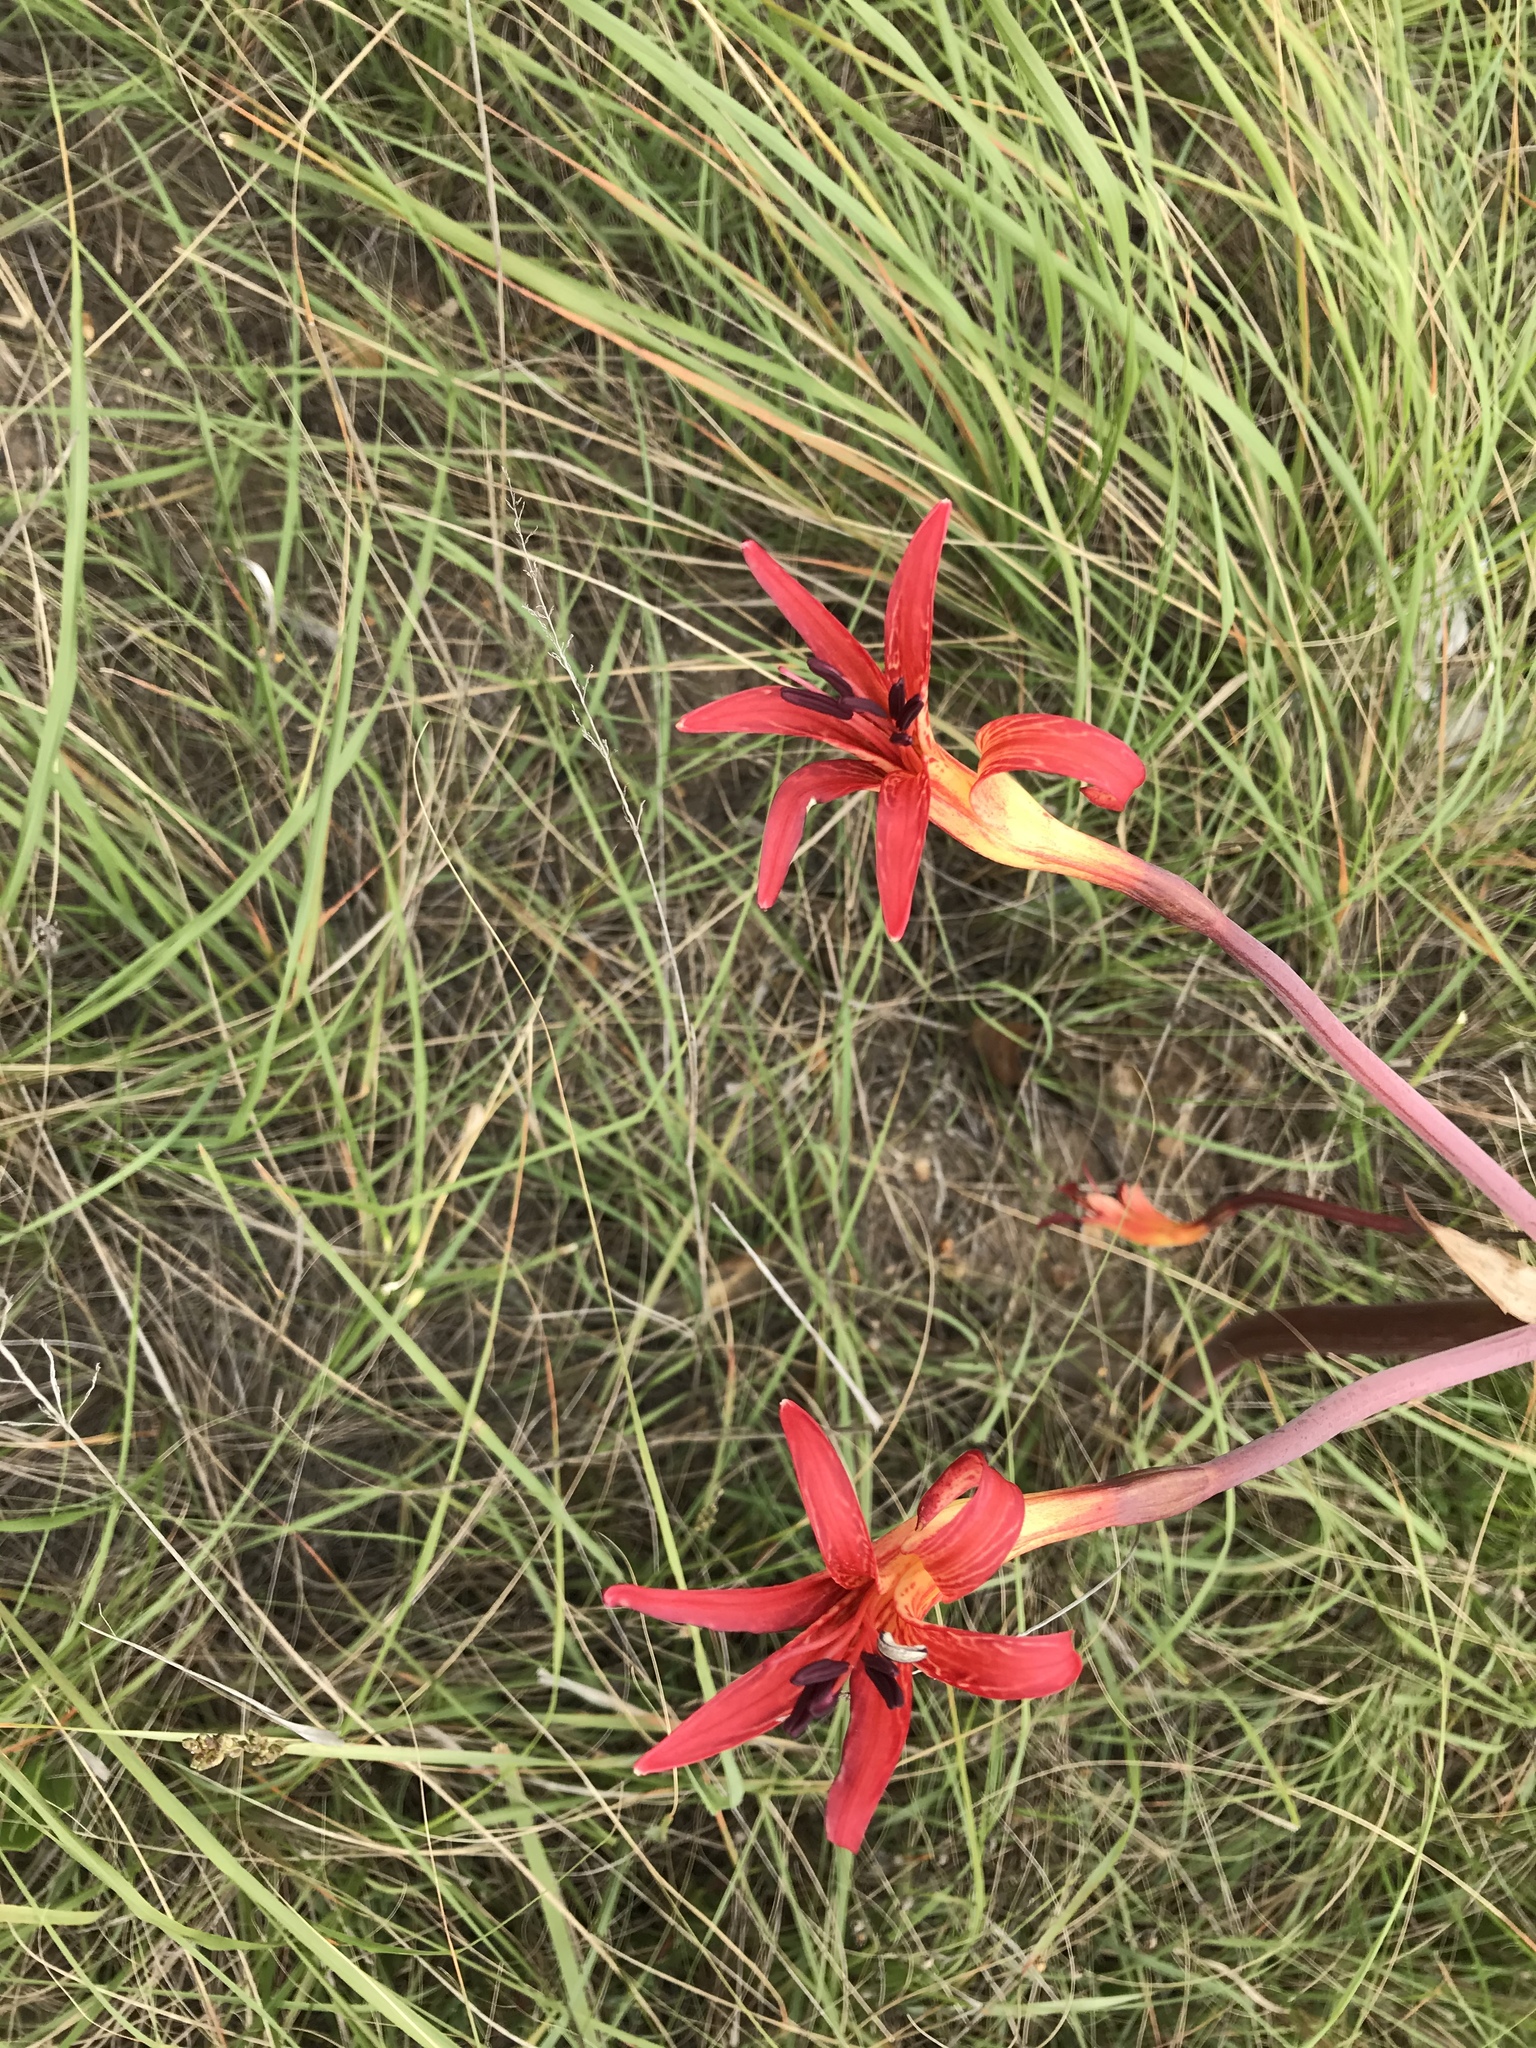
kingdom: Plantae
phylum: Tracheophyta
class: Liliopsida
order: Asparagales
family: Amaryllidaceae
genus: Brunsvigia
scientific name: Brunsvigia litoralis
